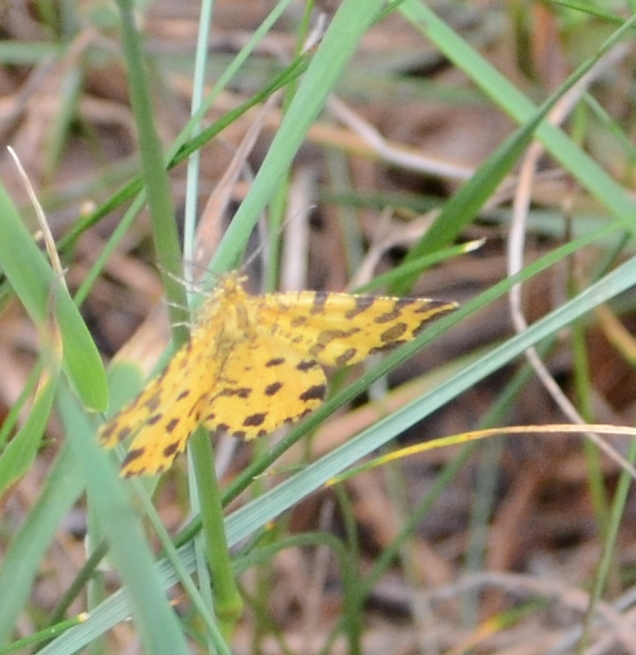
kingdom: Animalia
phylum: Arthropoda
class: Insecta
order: Lepidoptera
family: Geometridae
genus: Pseudopanthera
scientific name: Pseudopanthera macularia
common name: Speckled yellow
